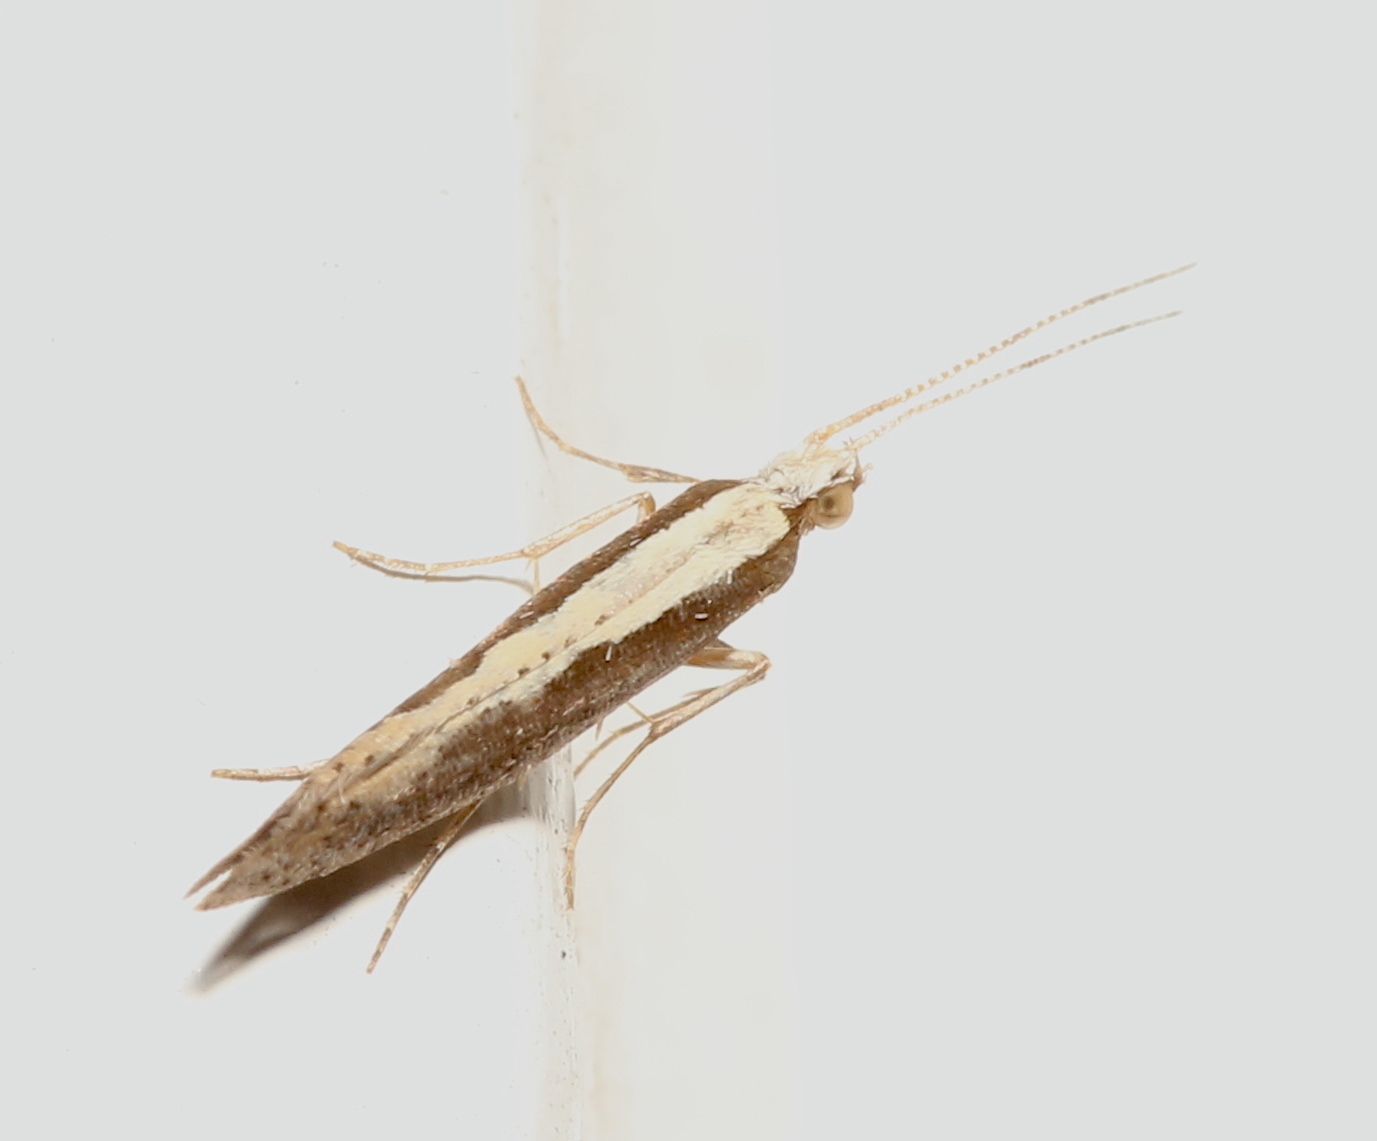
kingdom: Animalia
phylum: Arthropoda
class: Insecta
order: Lepidoptera
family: Plutellidae
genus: Plutella
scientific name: Plutella xylostella
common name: Diamond-back moth
